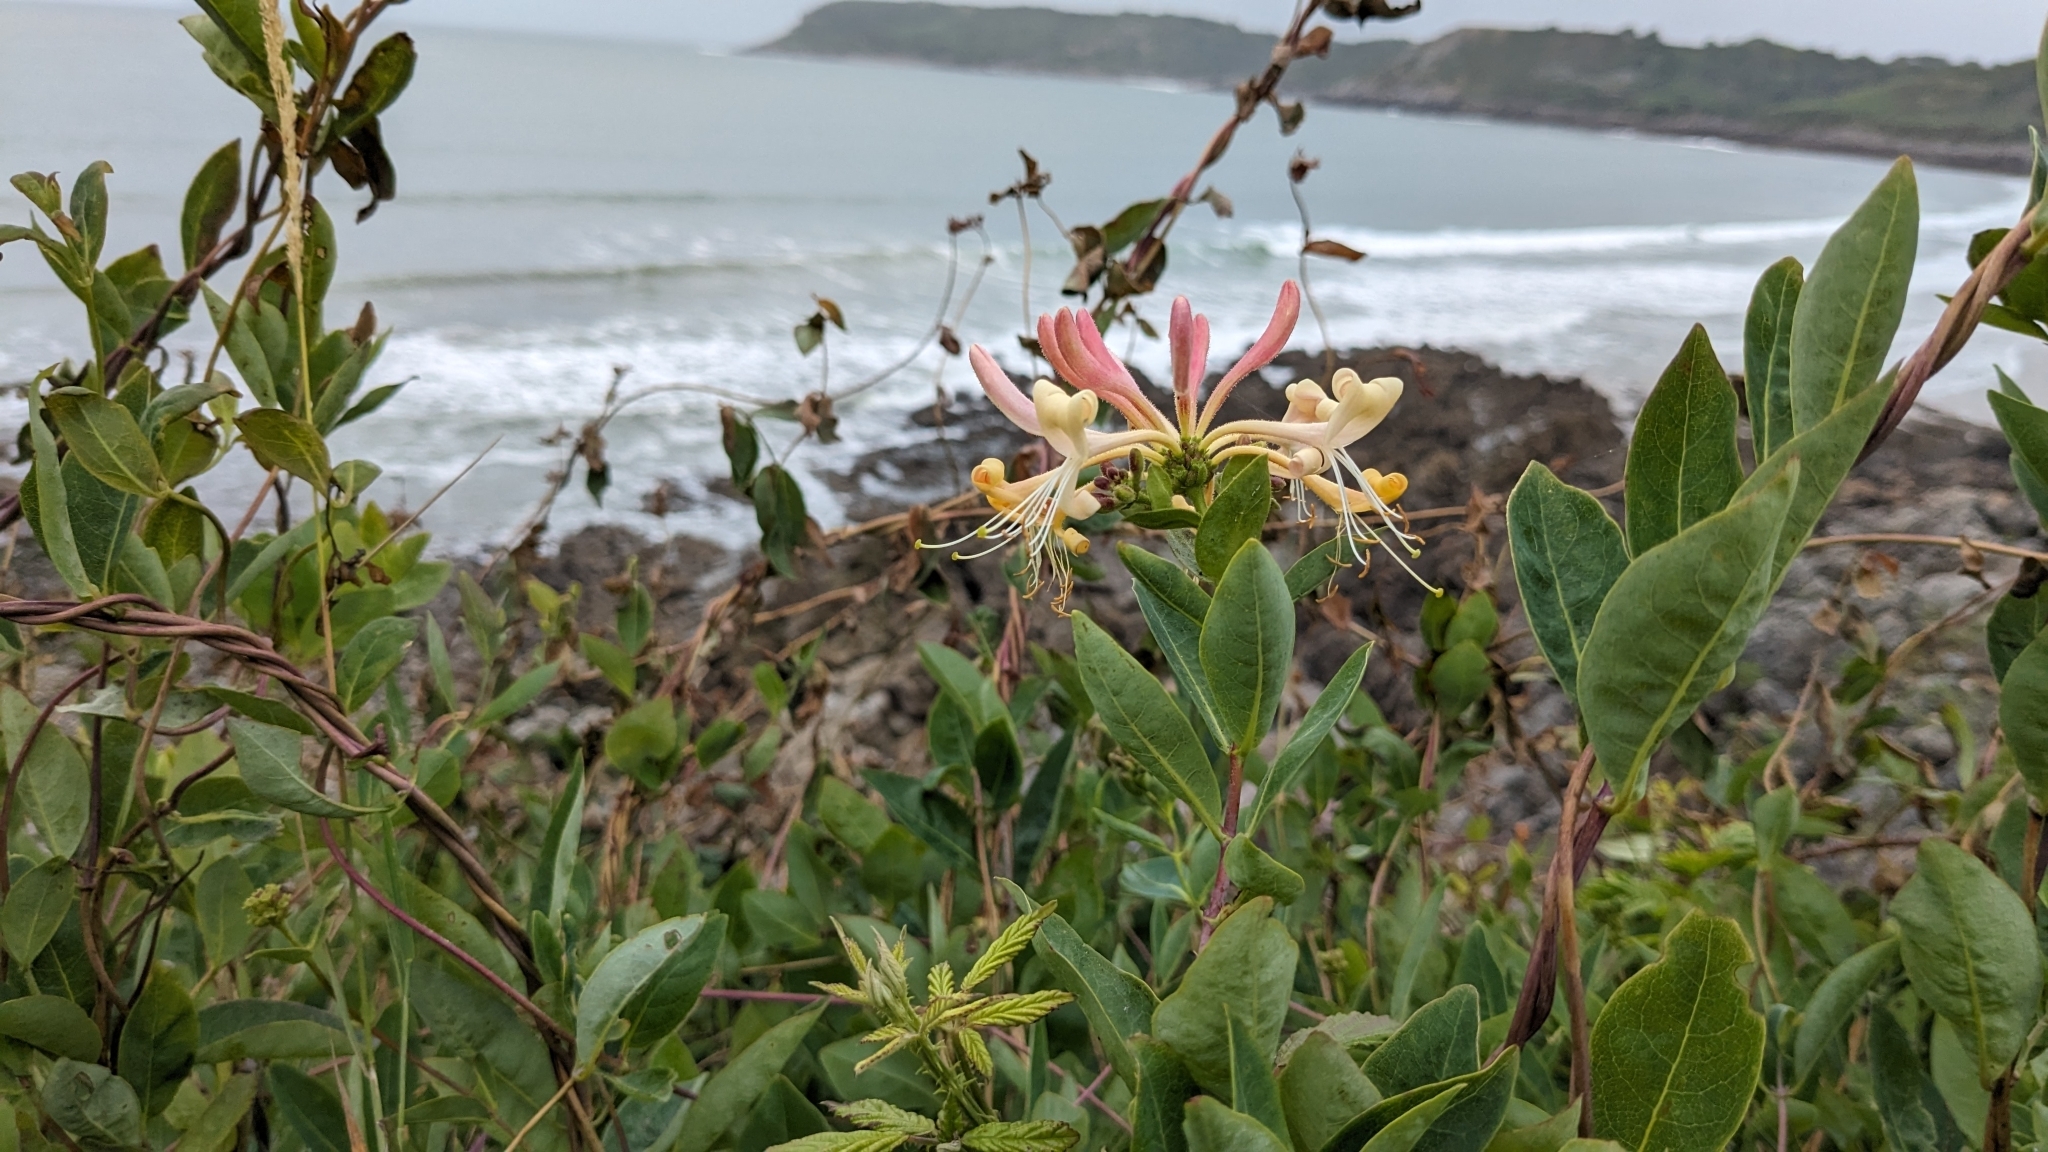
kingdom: Plantae
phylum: Tracheophyta
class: Magnoliopsida
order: Dipsacales
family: Caprifoliaceae
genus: Lonicera
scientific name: Lonicera periclymenum
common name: European honeysuckle
